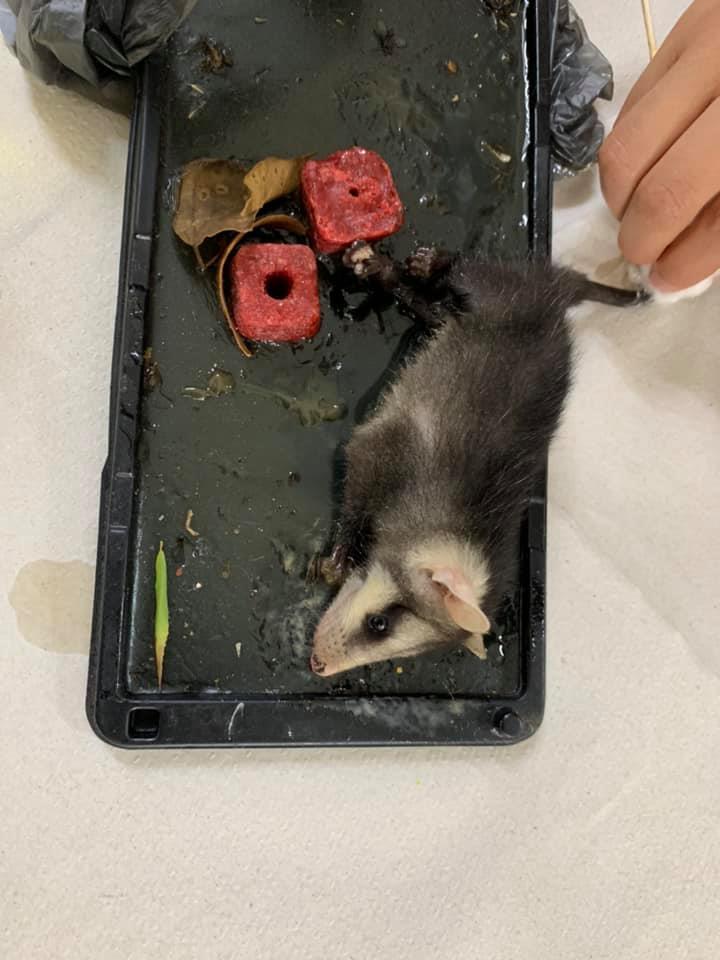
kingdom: Animalia
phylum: Chordata
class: Mammalia
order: Didelphimorphia
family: Didelphidae
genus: Didelphis
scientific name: Didelphis virginiana
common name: Virginia opossum
